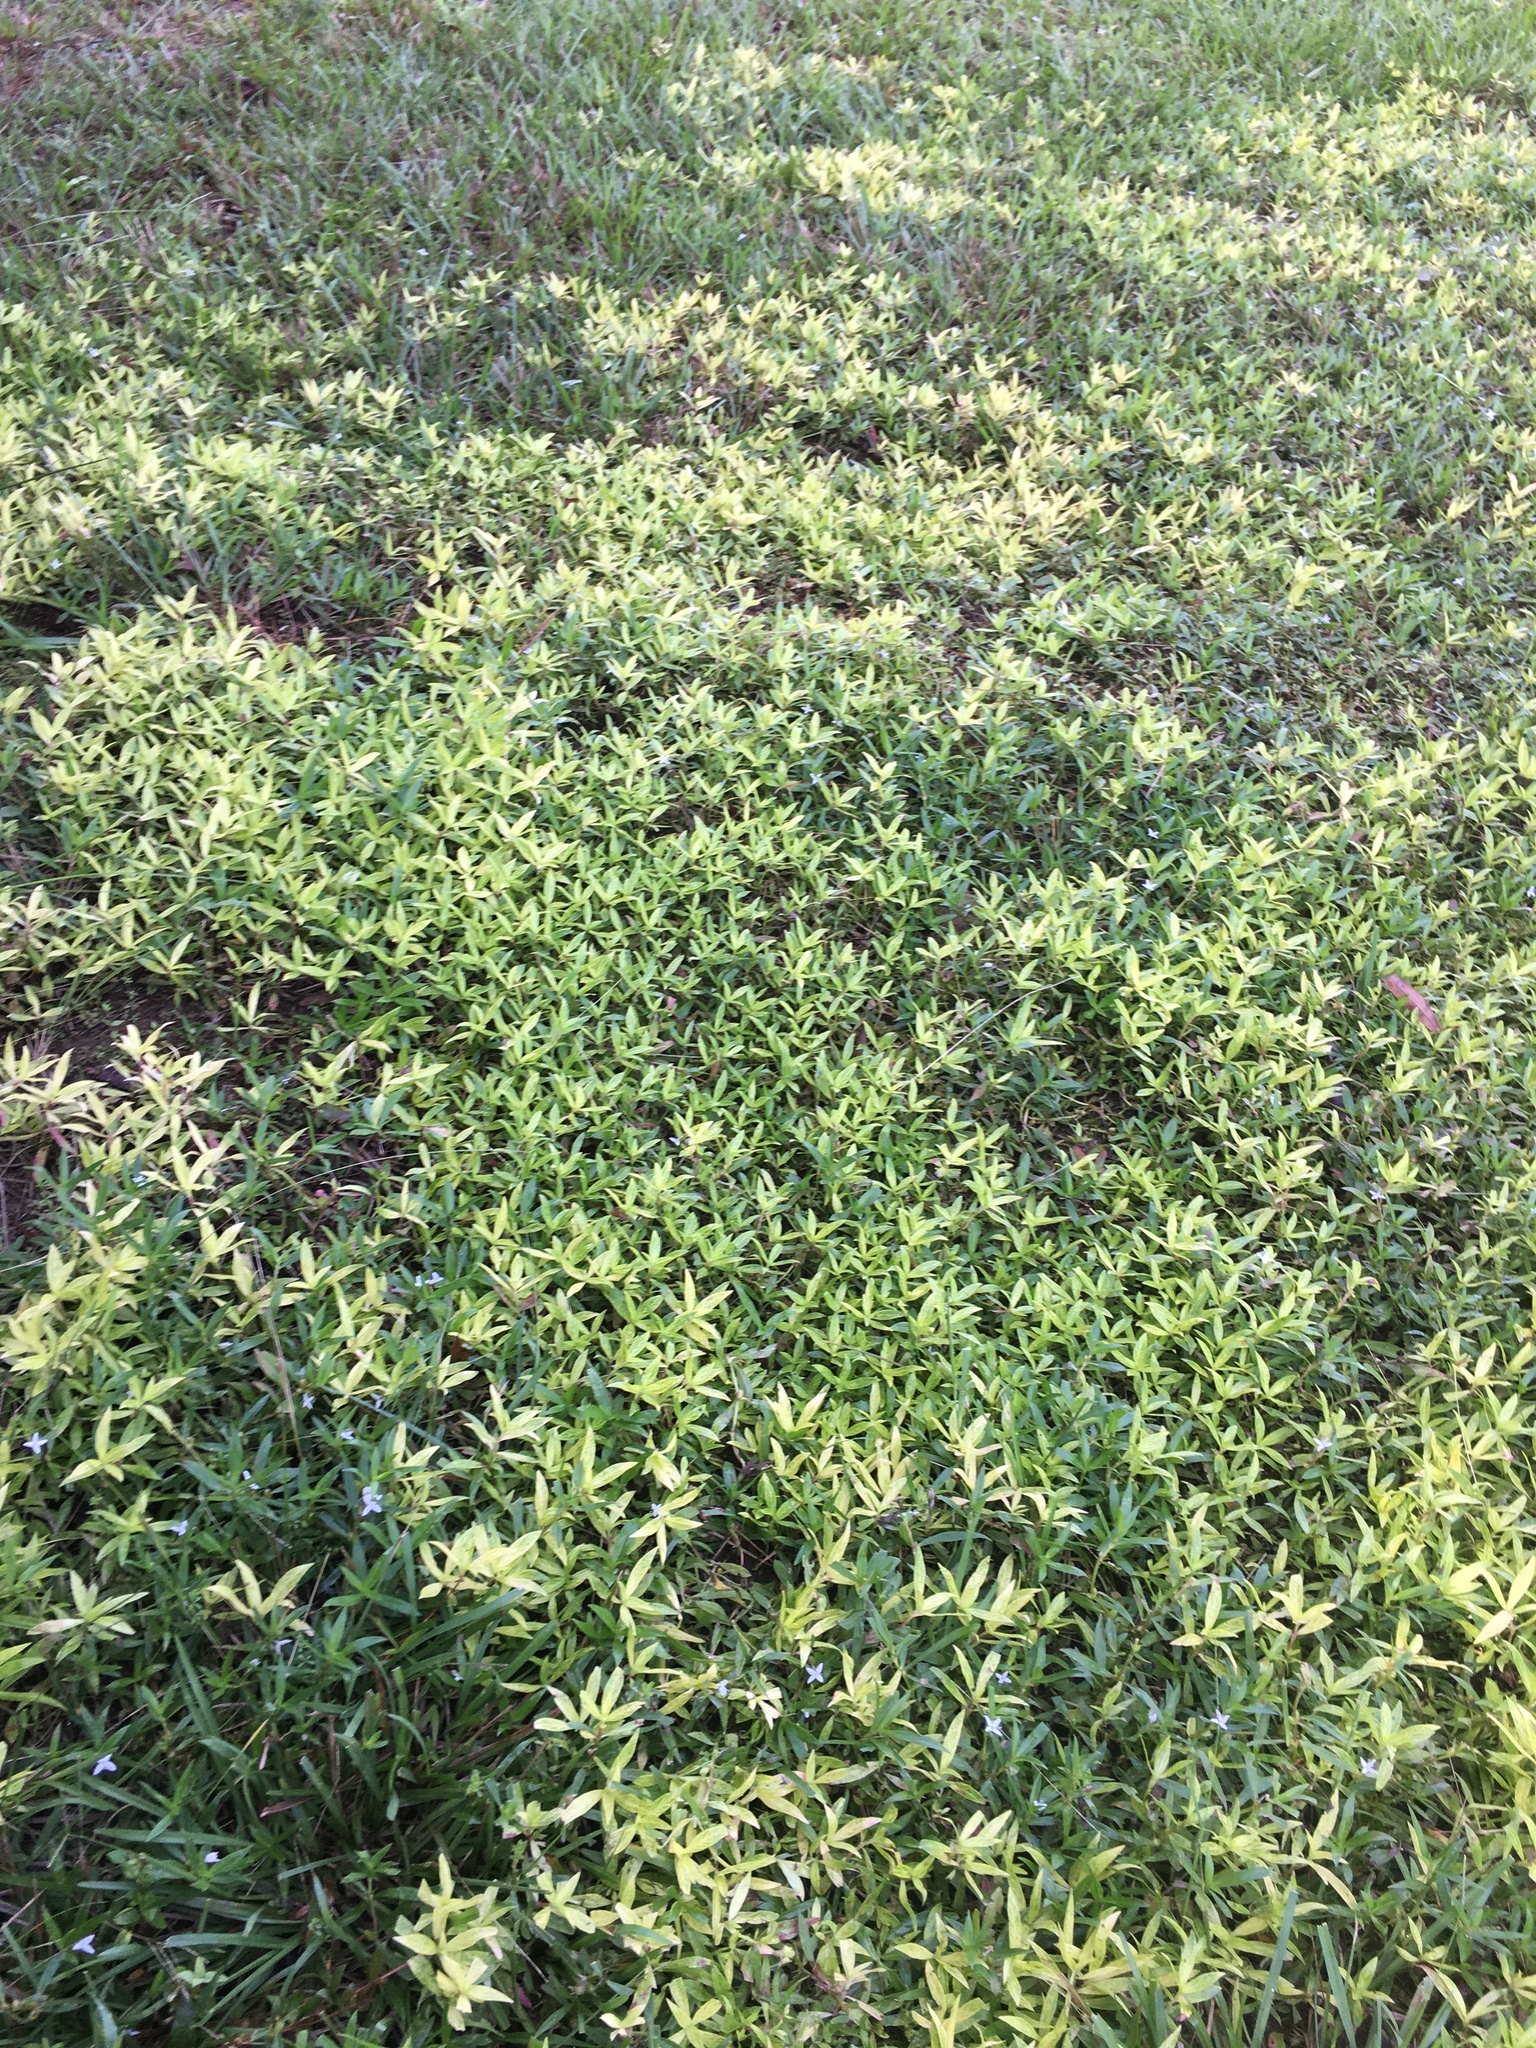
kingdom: Plantae
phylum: Tracheophyta
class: Magnoliopsida
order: Gentianales
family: Rubiaceae
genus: Diodia
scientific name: Diodia virginiana
